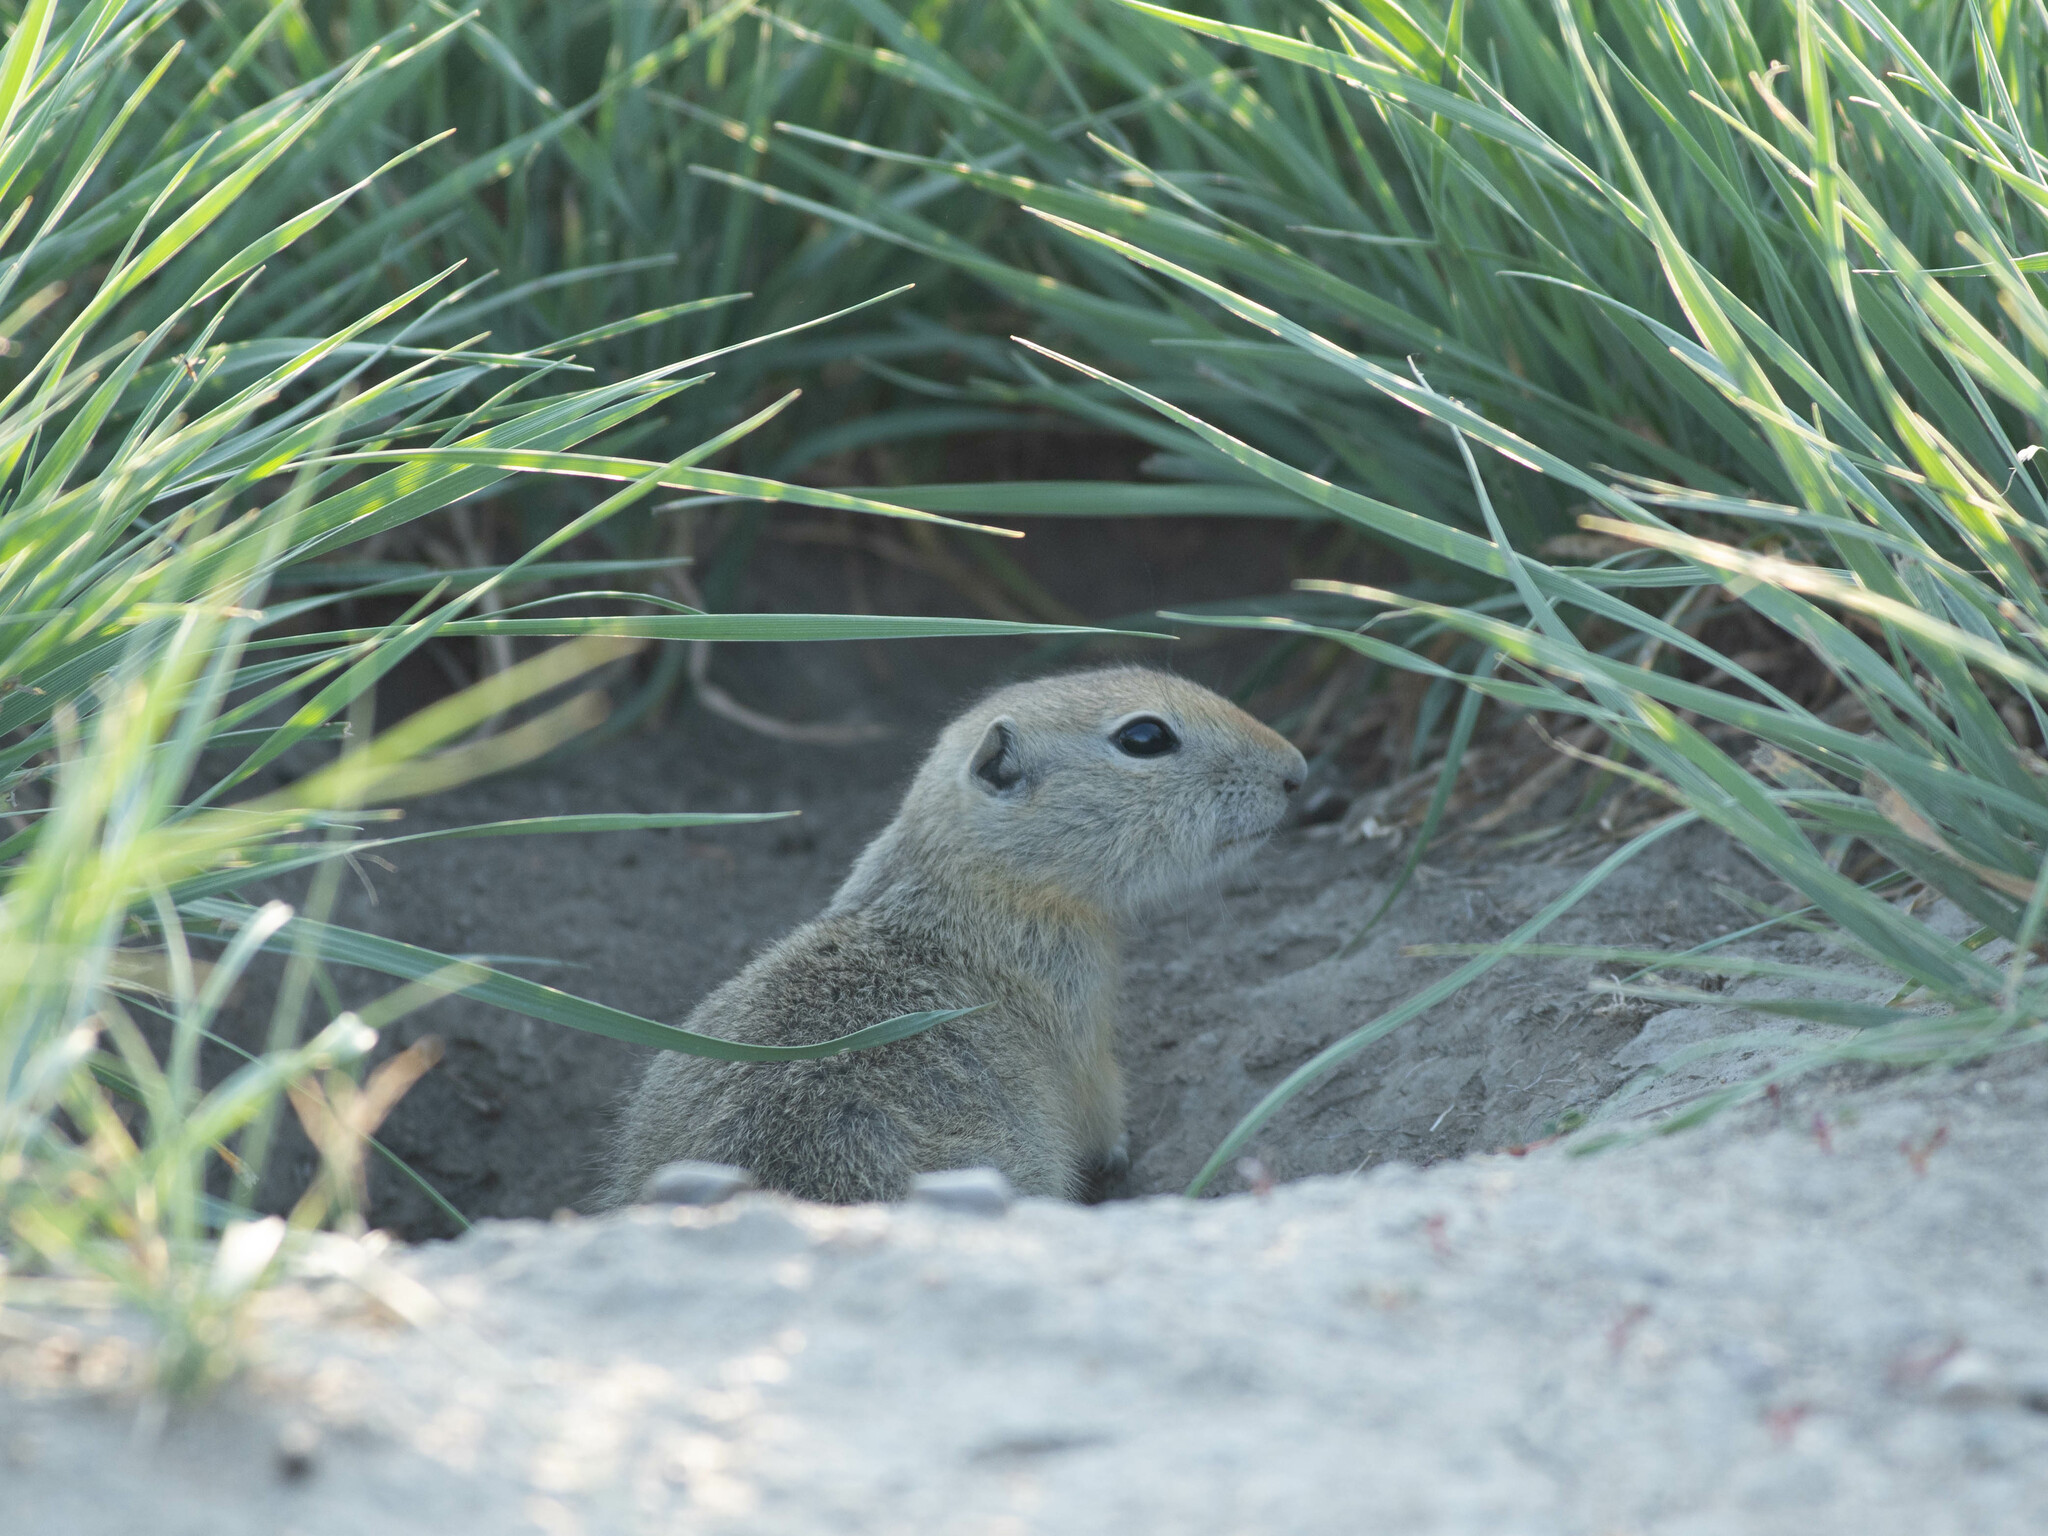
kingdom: Animalia
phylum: Chordata
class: Mammalia
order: Rodentia
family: Sciuridae
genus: Urocitellus
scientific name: Urocitellus richardsonii
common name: Richardson's ground squirrel
